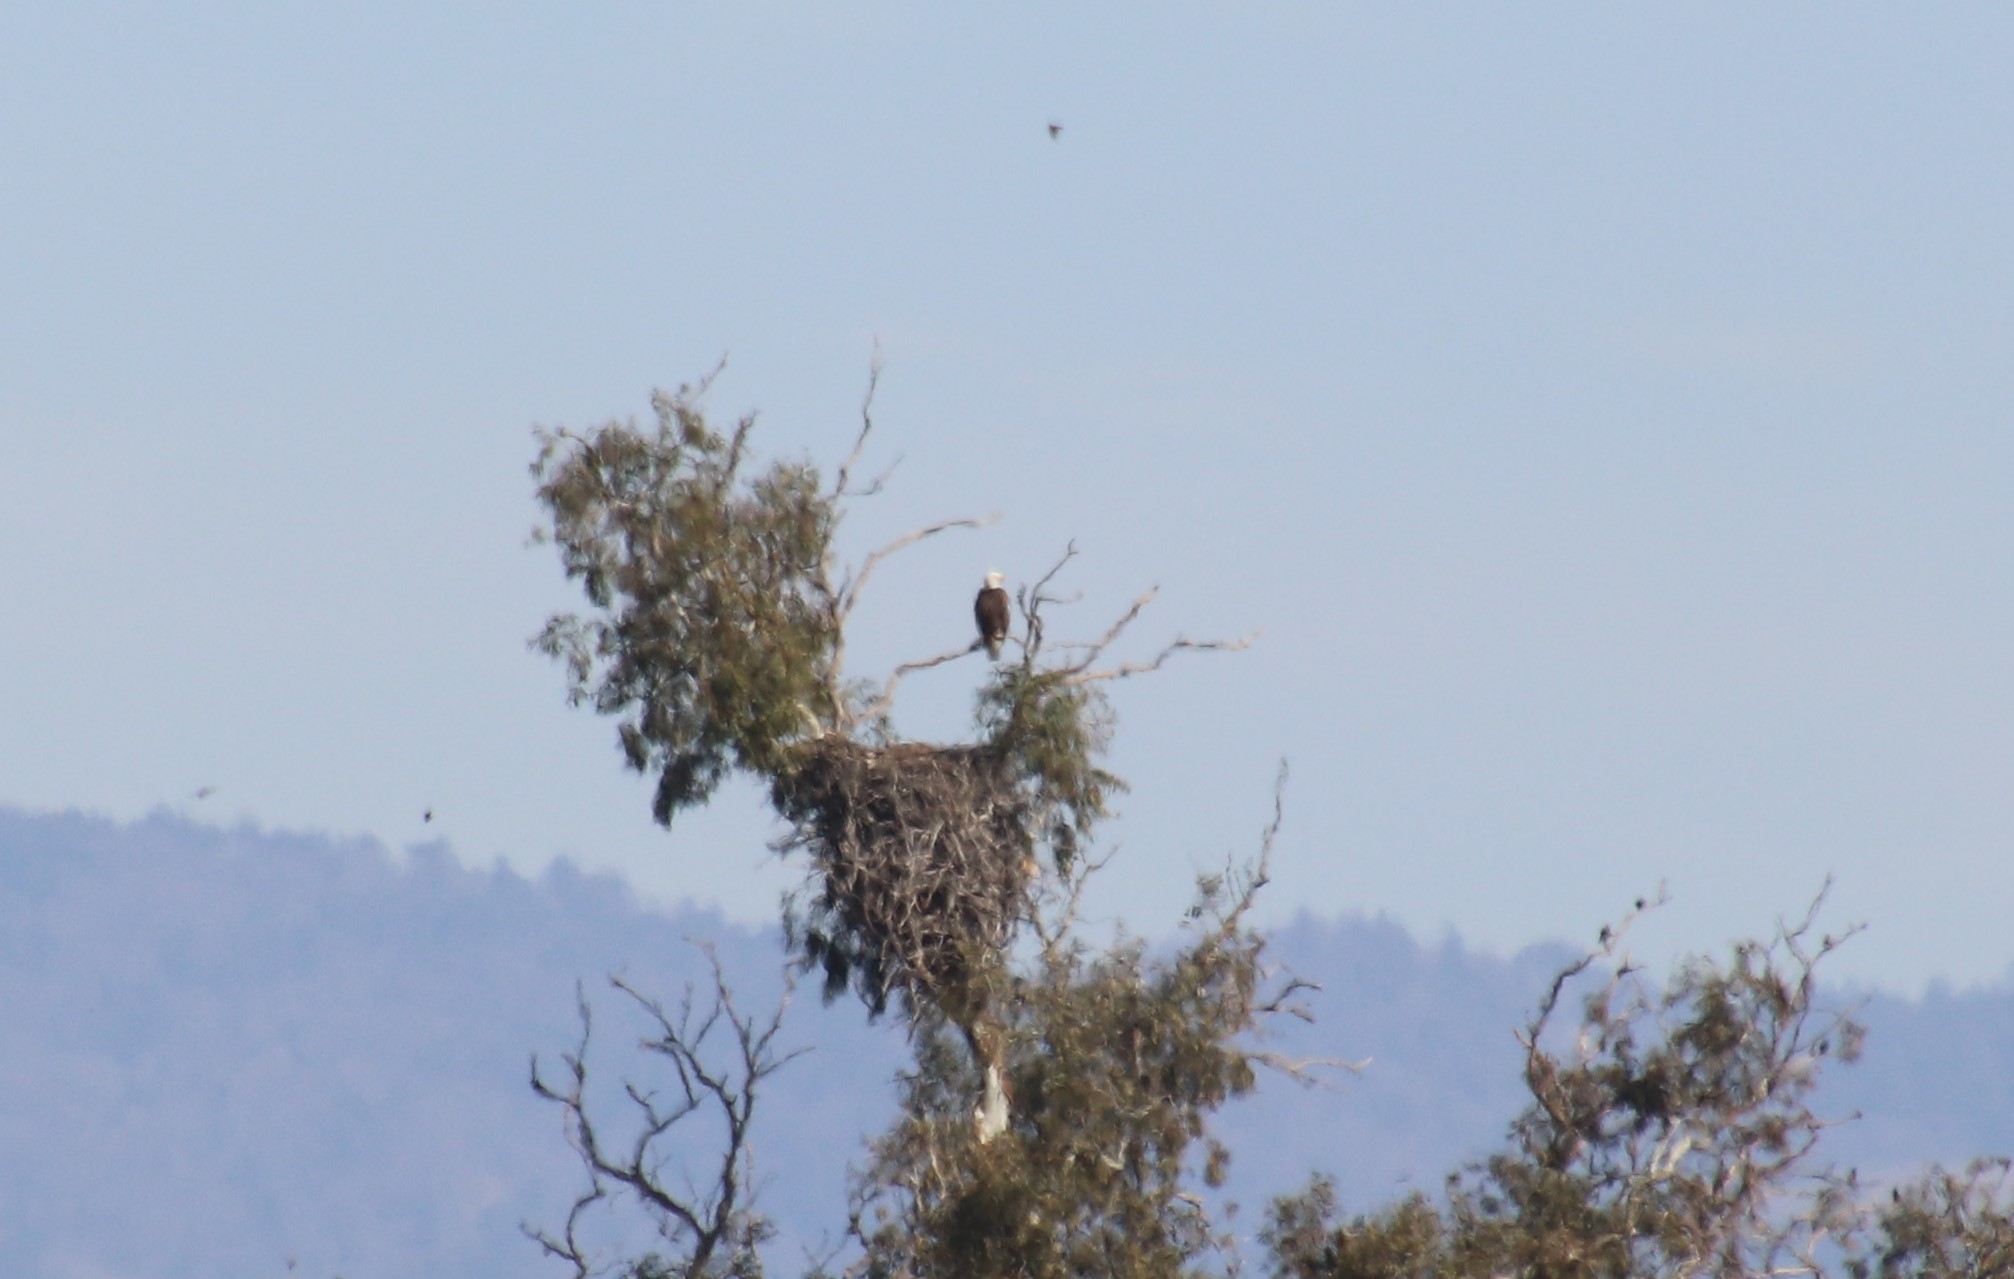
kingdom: Animalia
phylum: Chordata
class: Aves
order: Accipitriformes
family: Accipitridae
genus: Haliaeetus
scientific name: Haliaeetus leucocephalus
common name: Bald eagle
